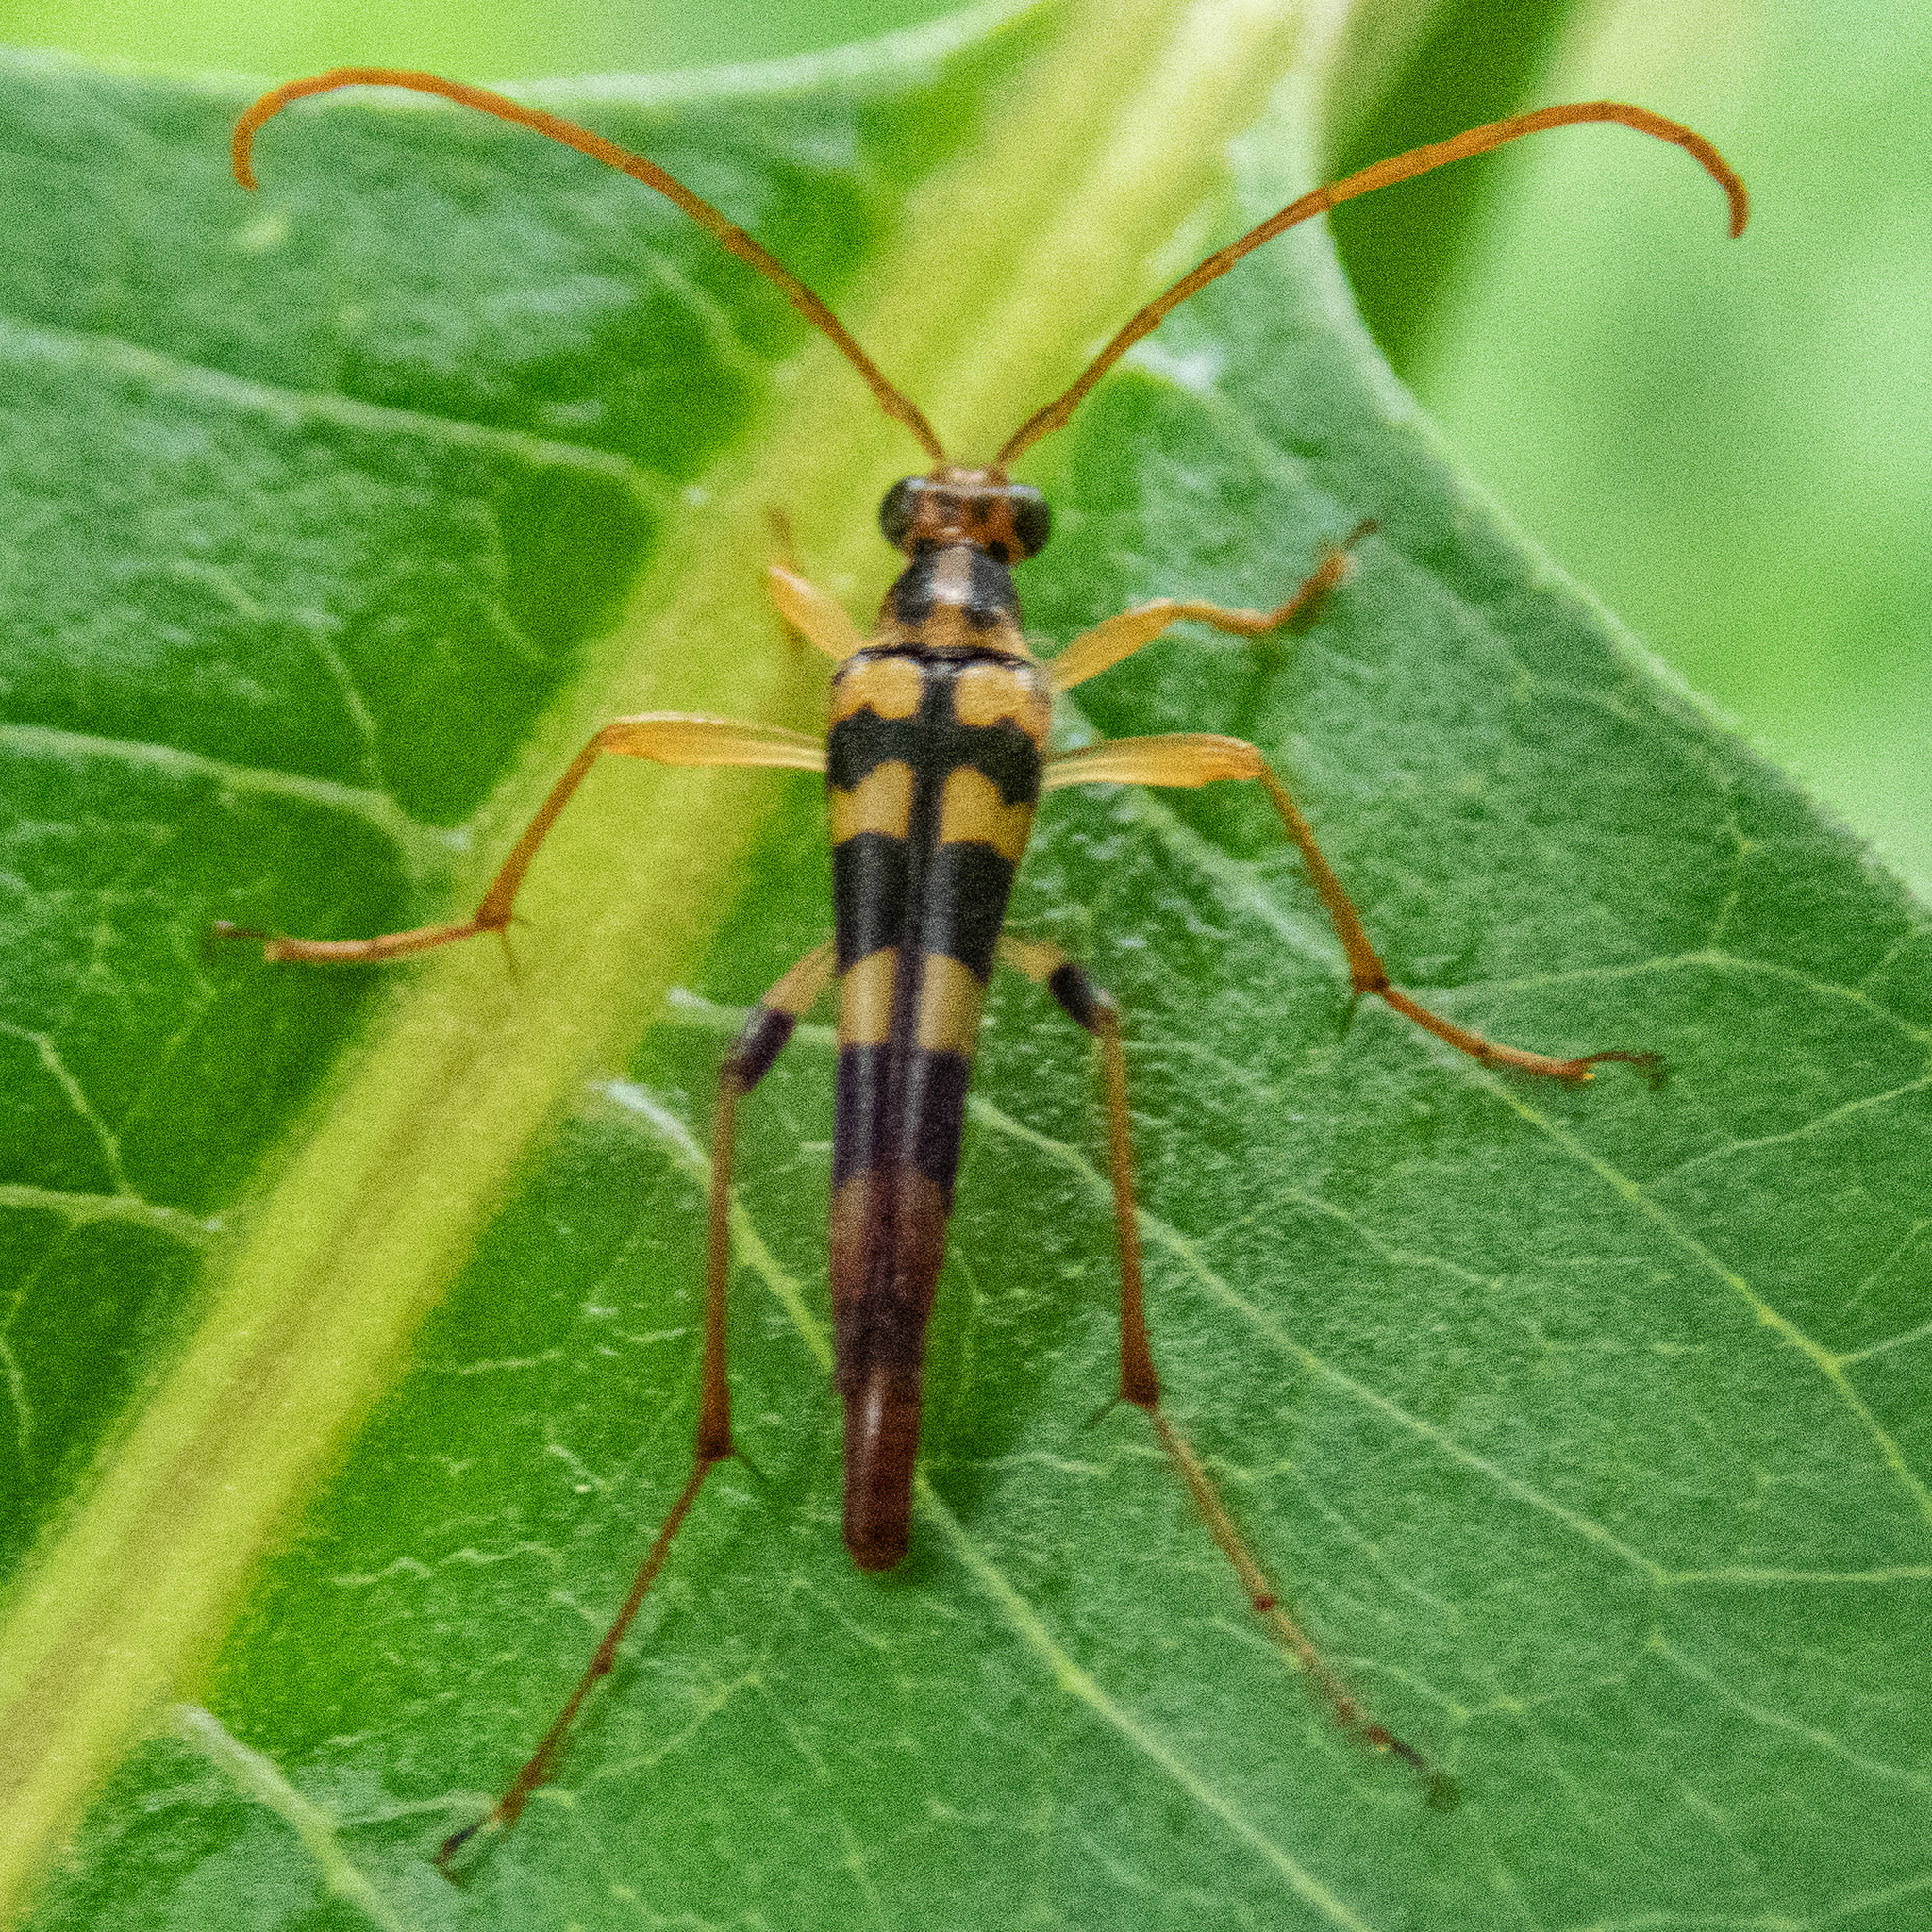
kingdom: Animalia
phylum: Arthropoda
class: Insecta
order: Coleoptera
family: Cerambycidae
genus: Strangalia
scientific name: Strangalia luteicornis
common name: Yellow-horned flower longhorn beetle
